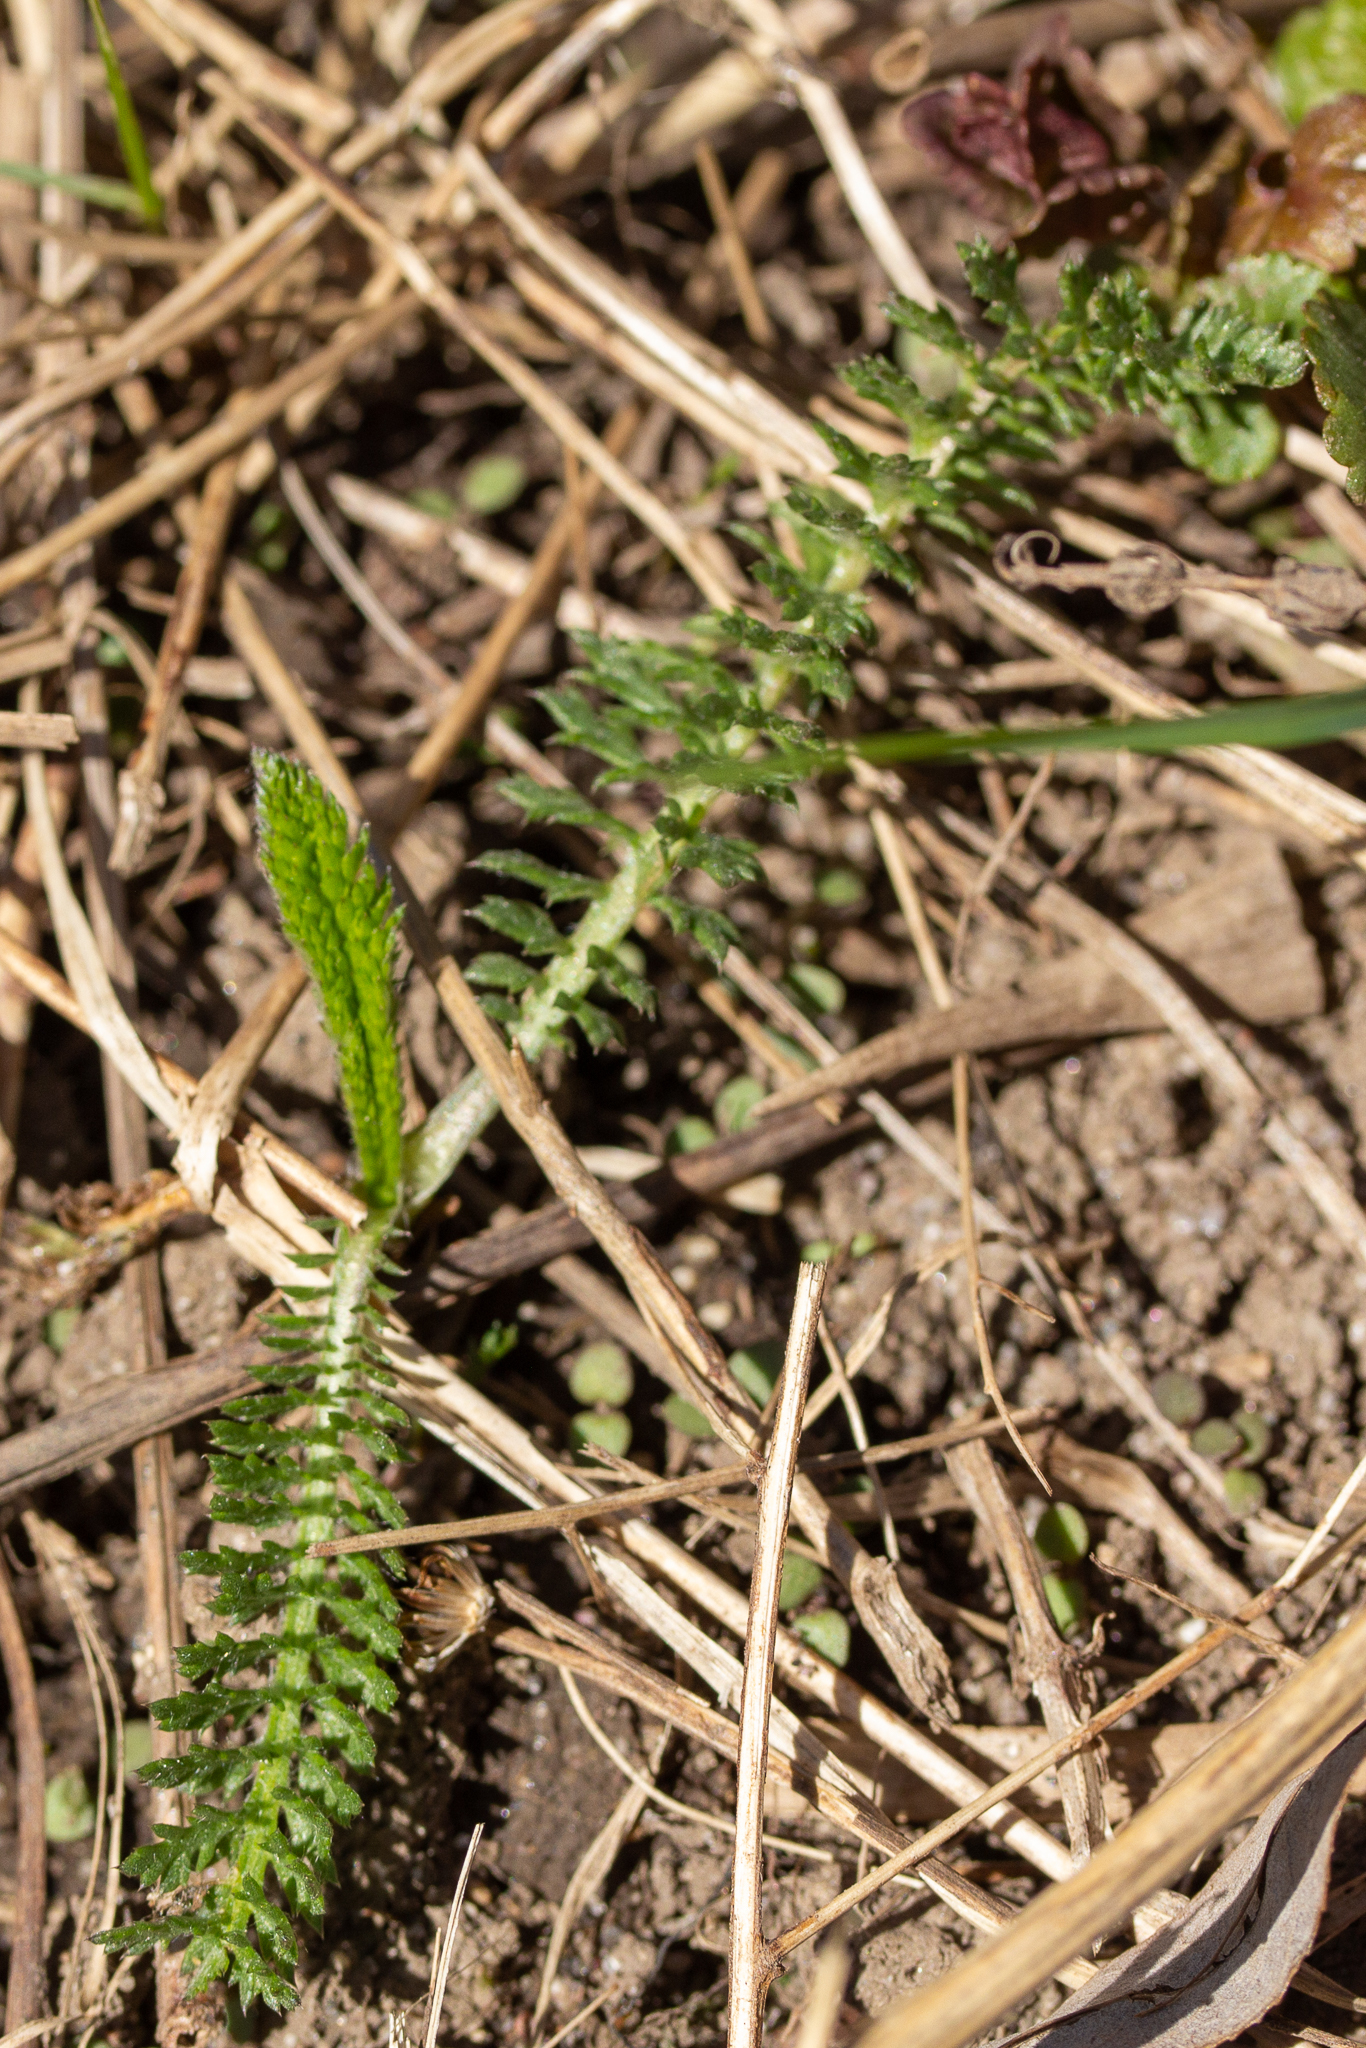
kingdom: Plantae
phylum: Tracheophyta
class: Magnoliopsida
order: Asterales
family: Asteraceae
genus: Achillea
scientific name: Achillea millefolium
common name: Yarrow
